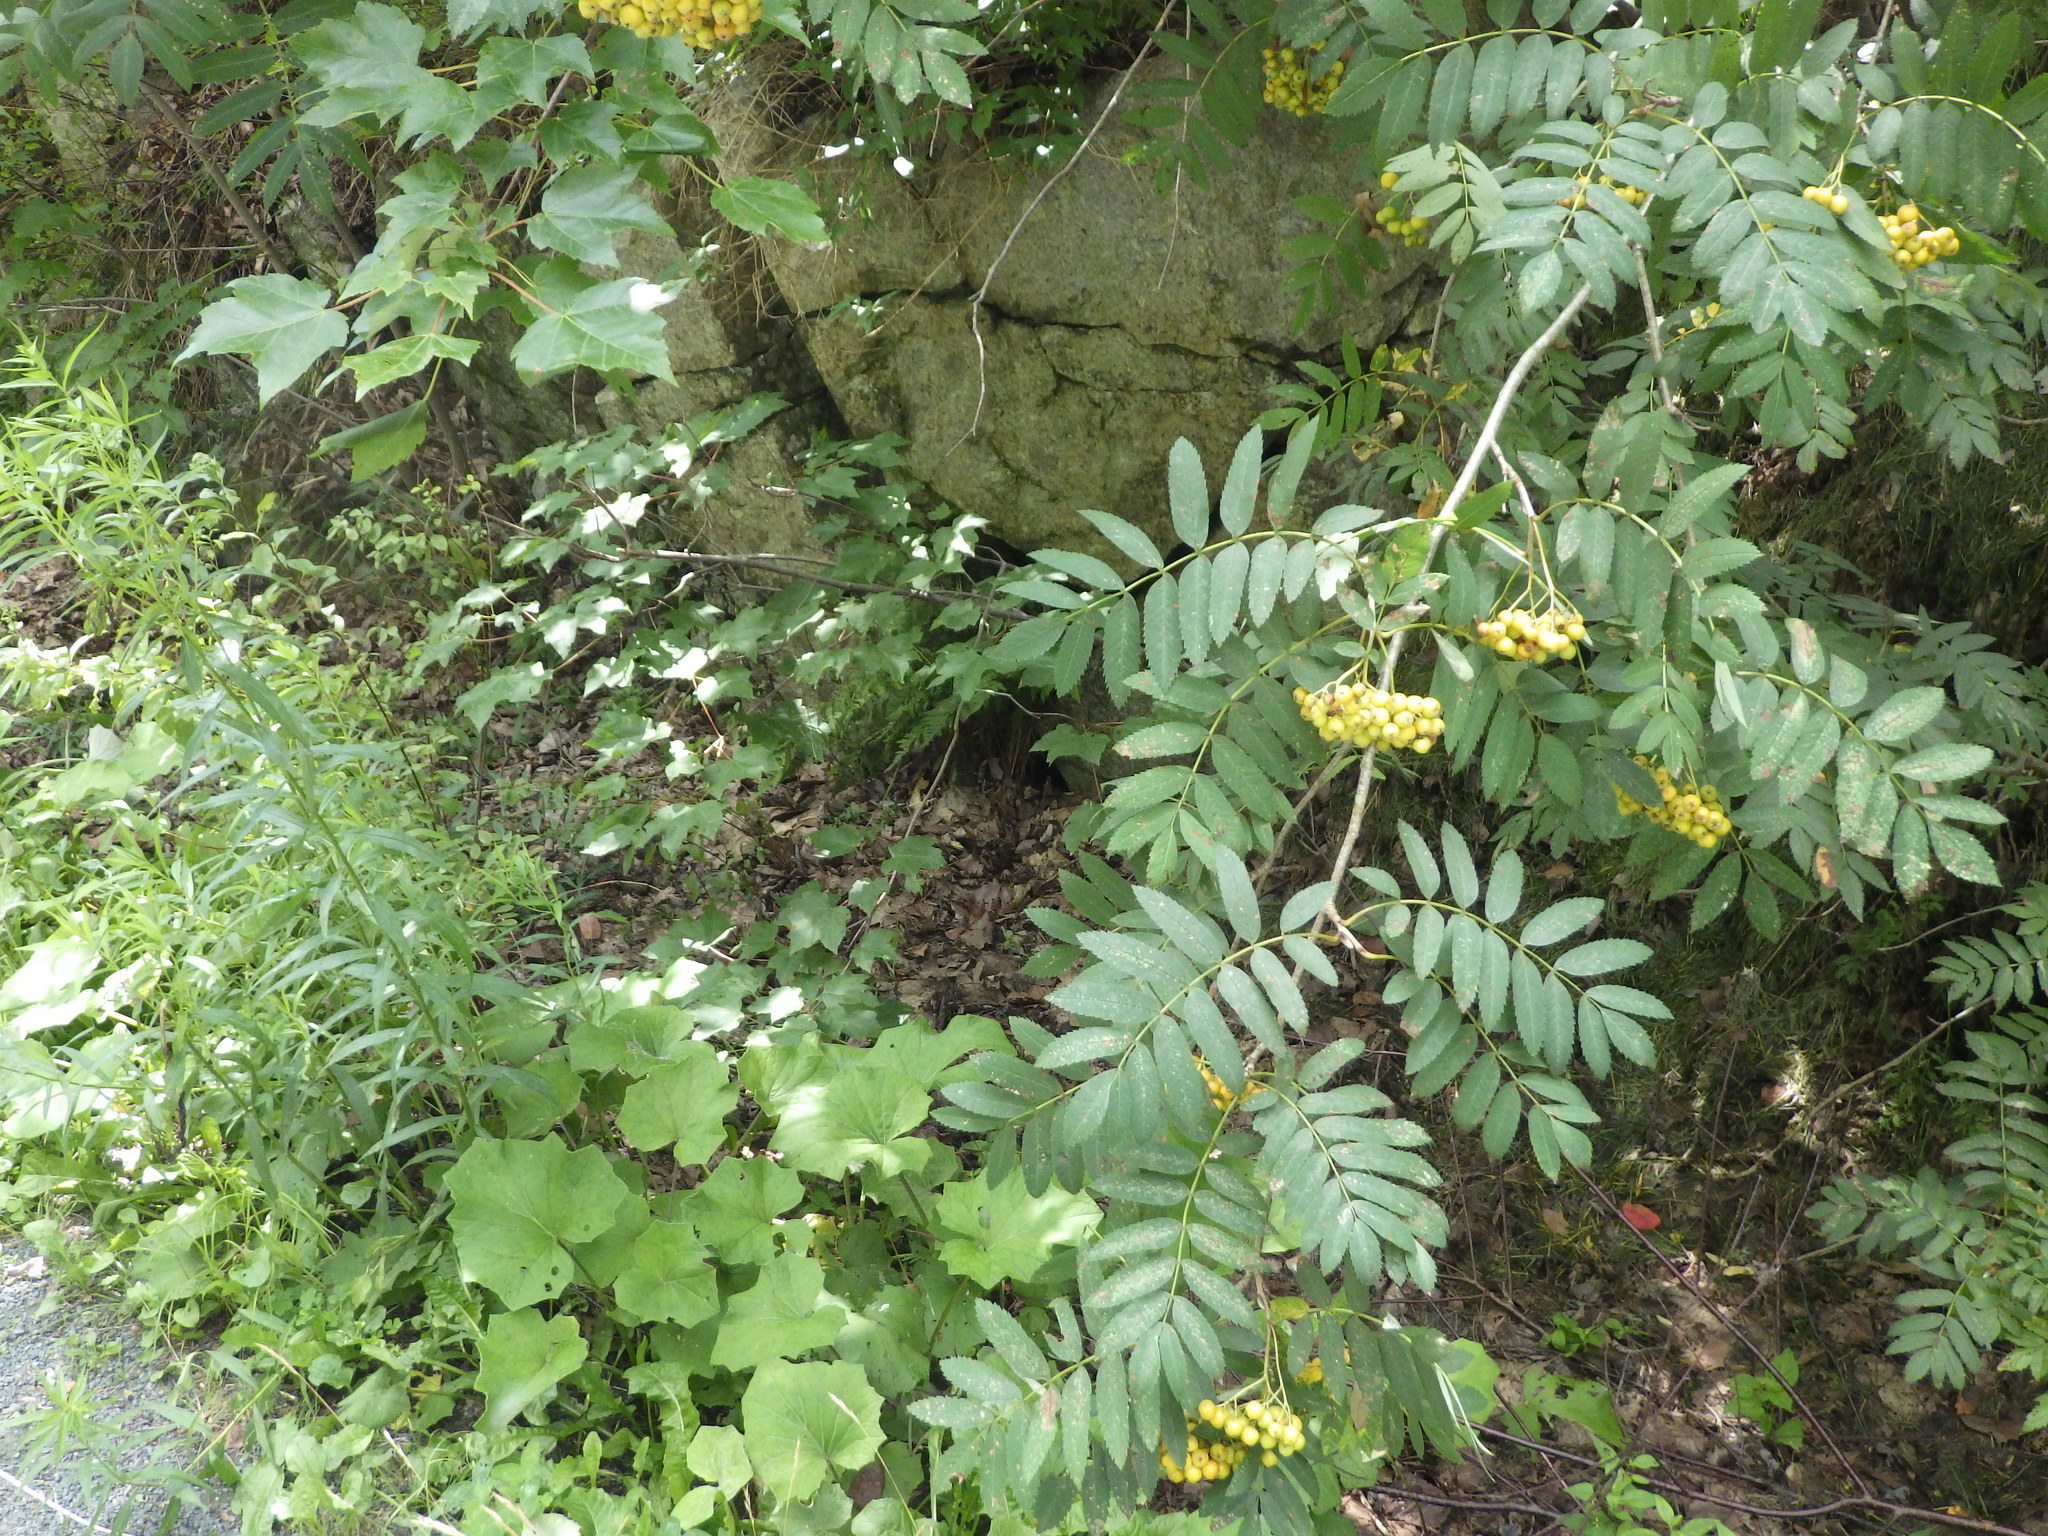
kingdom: Plantae
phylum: Tracheophyta
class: Magnoliopsida
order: Rosales
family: Rosaceae
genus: Sorbus
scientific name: Sorbus americana
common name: American mountain-ash
